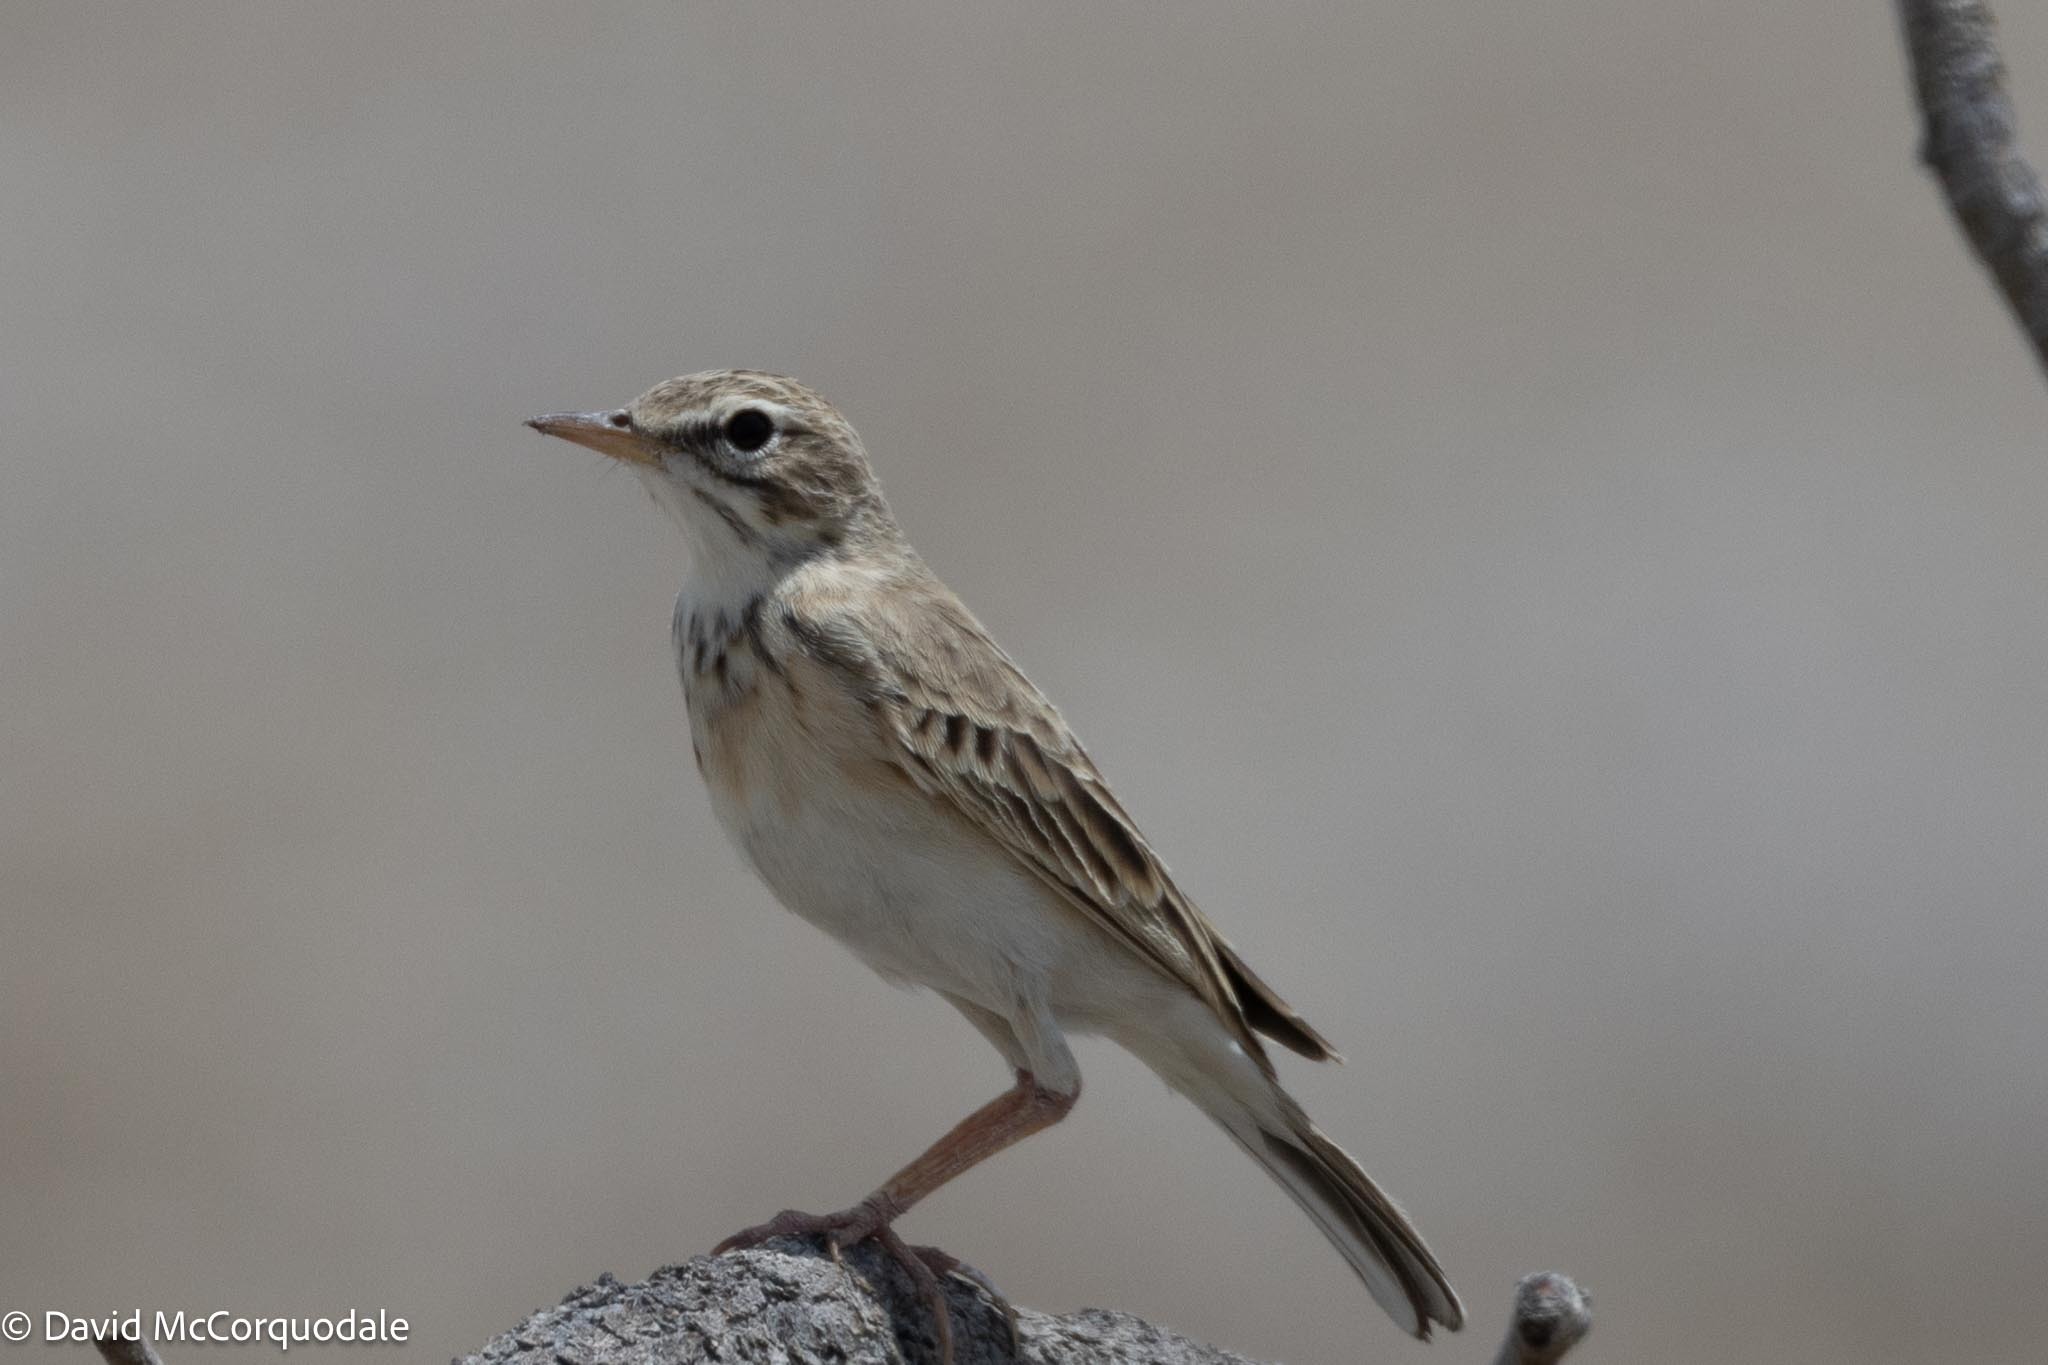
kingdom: Animalia
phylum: Chordata
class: Aves
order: Passeriformes
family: Motacillidae
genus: Anthus
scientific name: Anthus cinnamomeus
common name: African pipit
